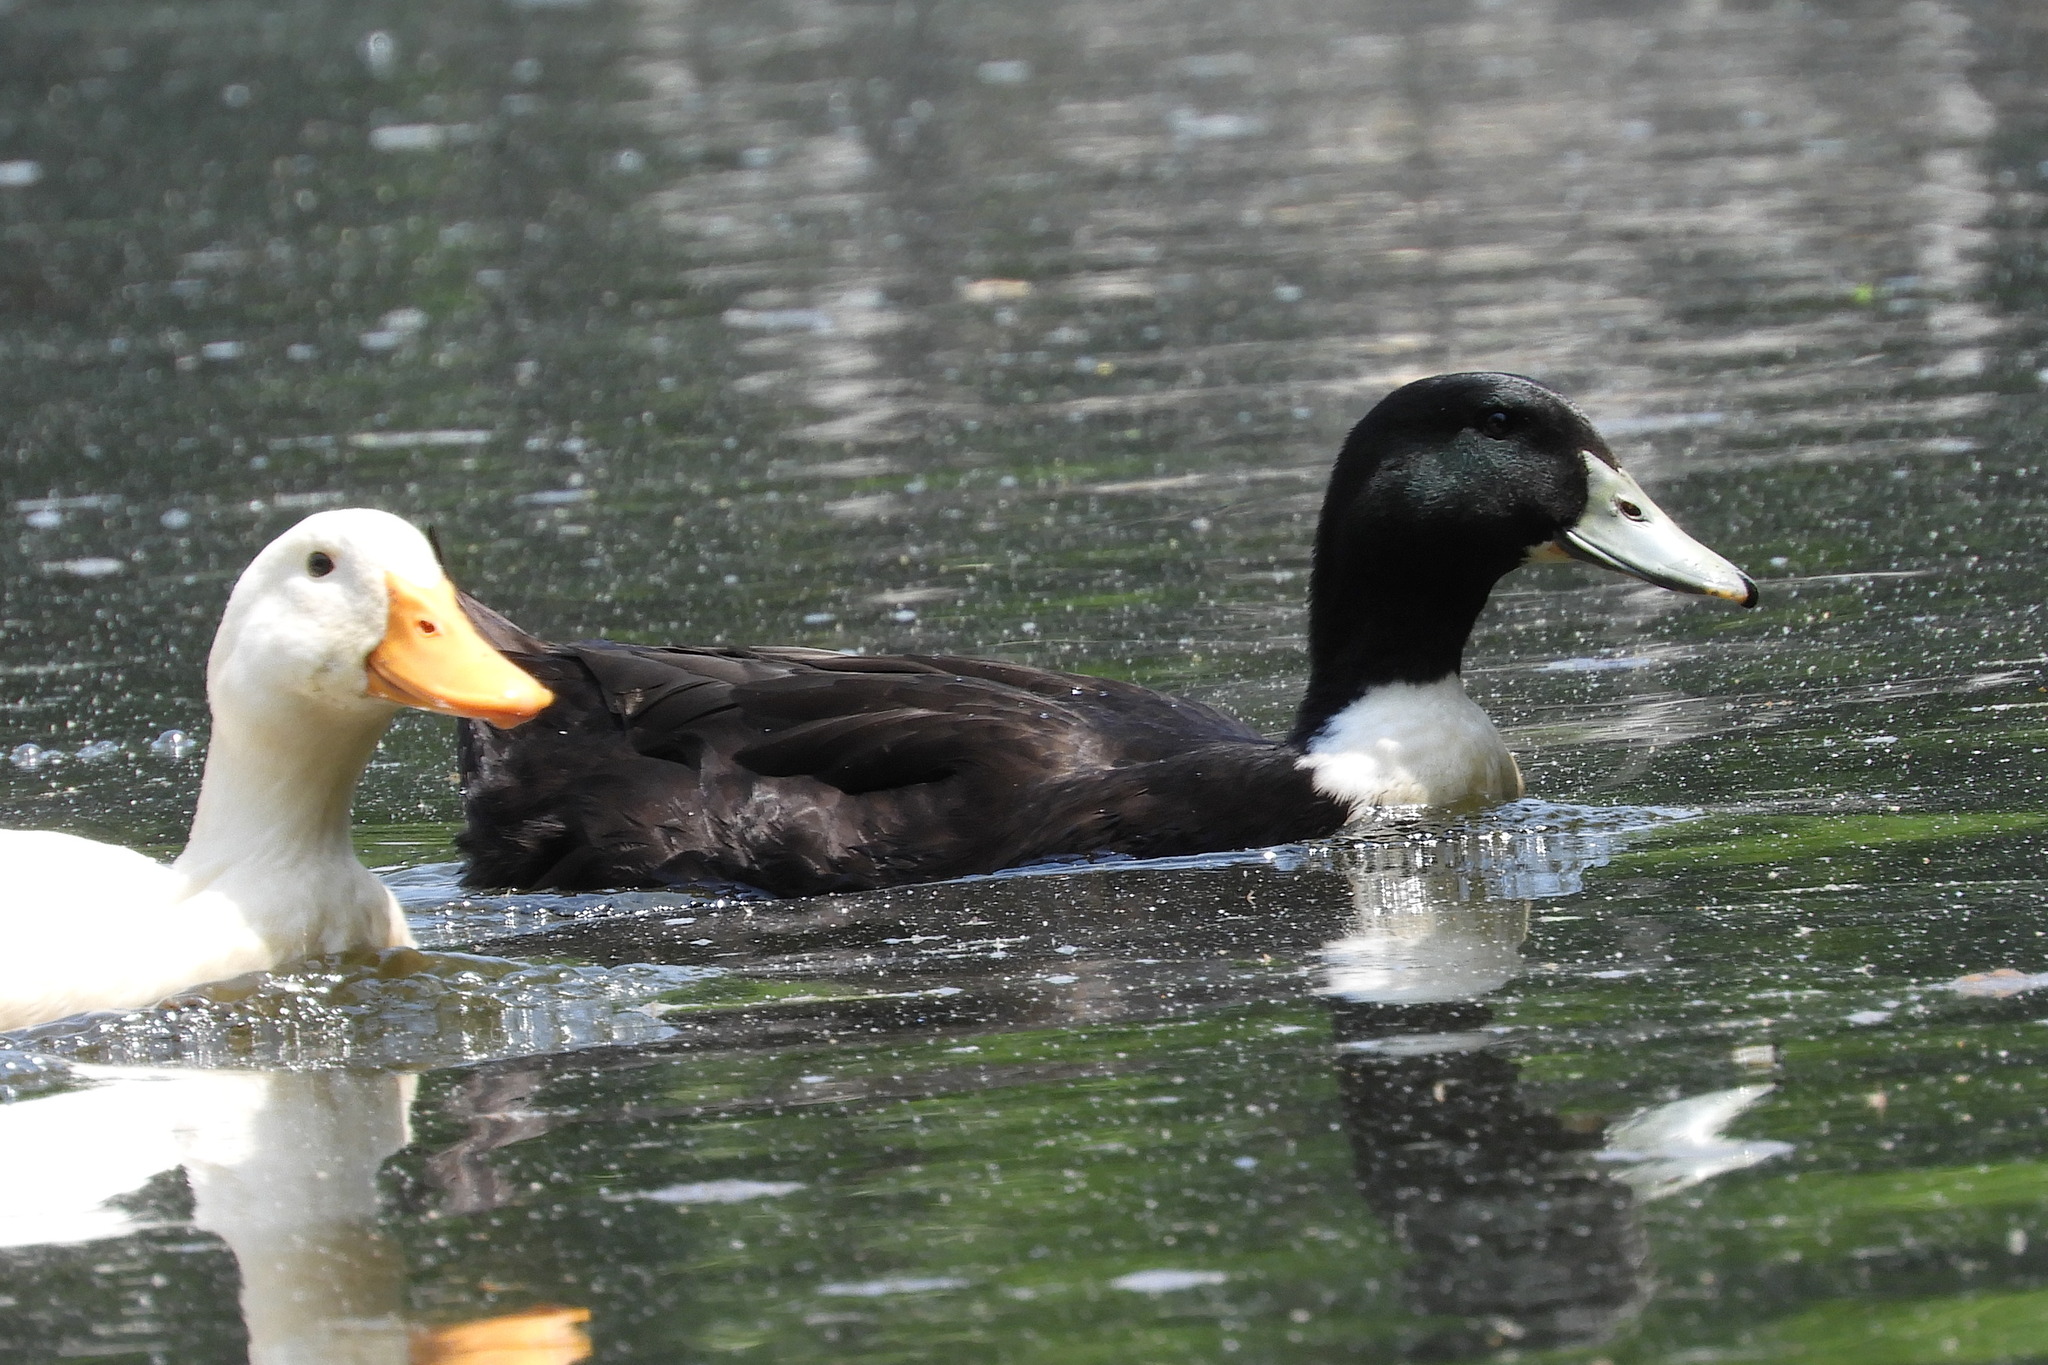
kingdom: Animalia
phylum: Chordata
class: Aves
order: Anseriformes
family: Anatidae
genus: Anas
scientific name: Anas platyrhynchos
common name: Mallard
